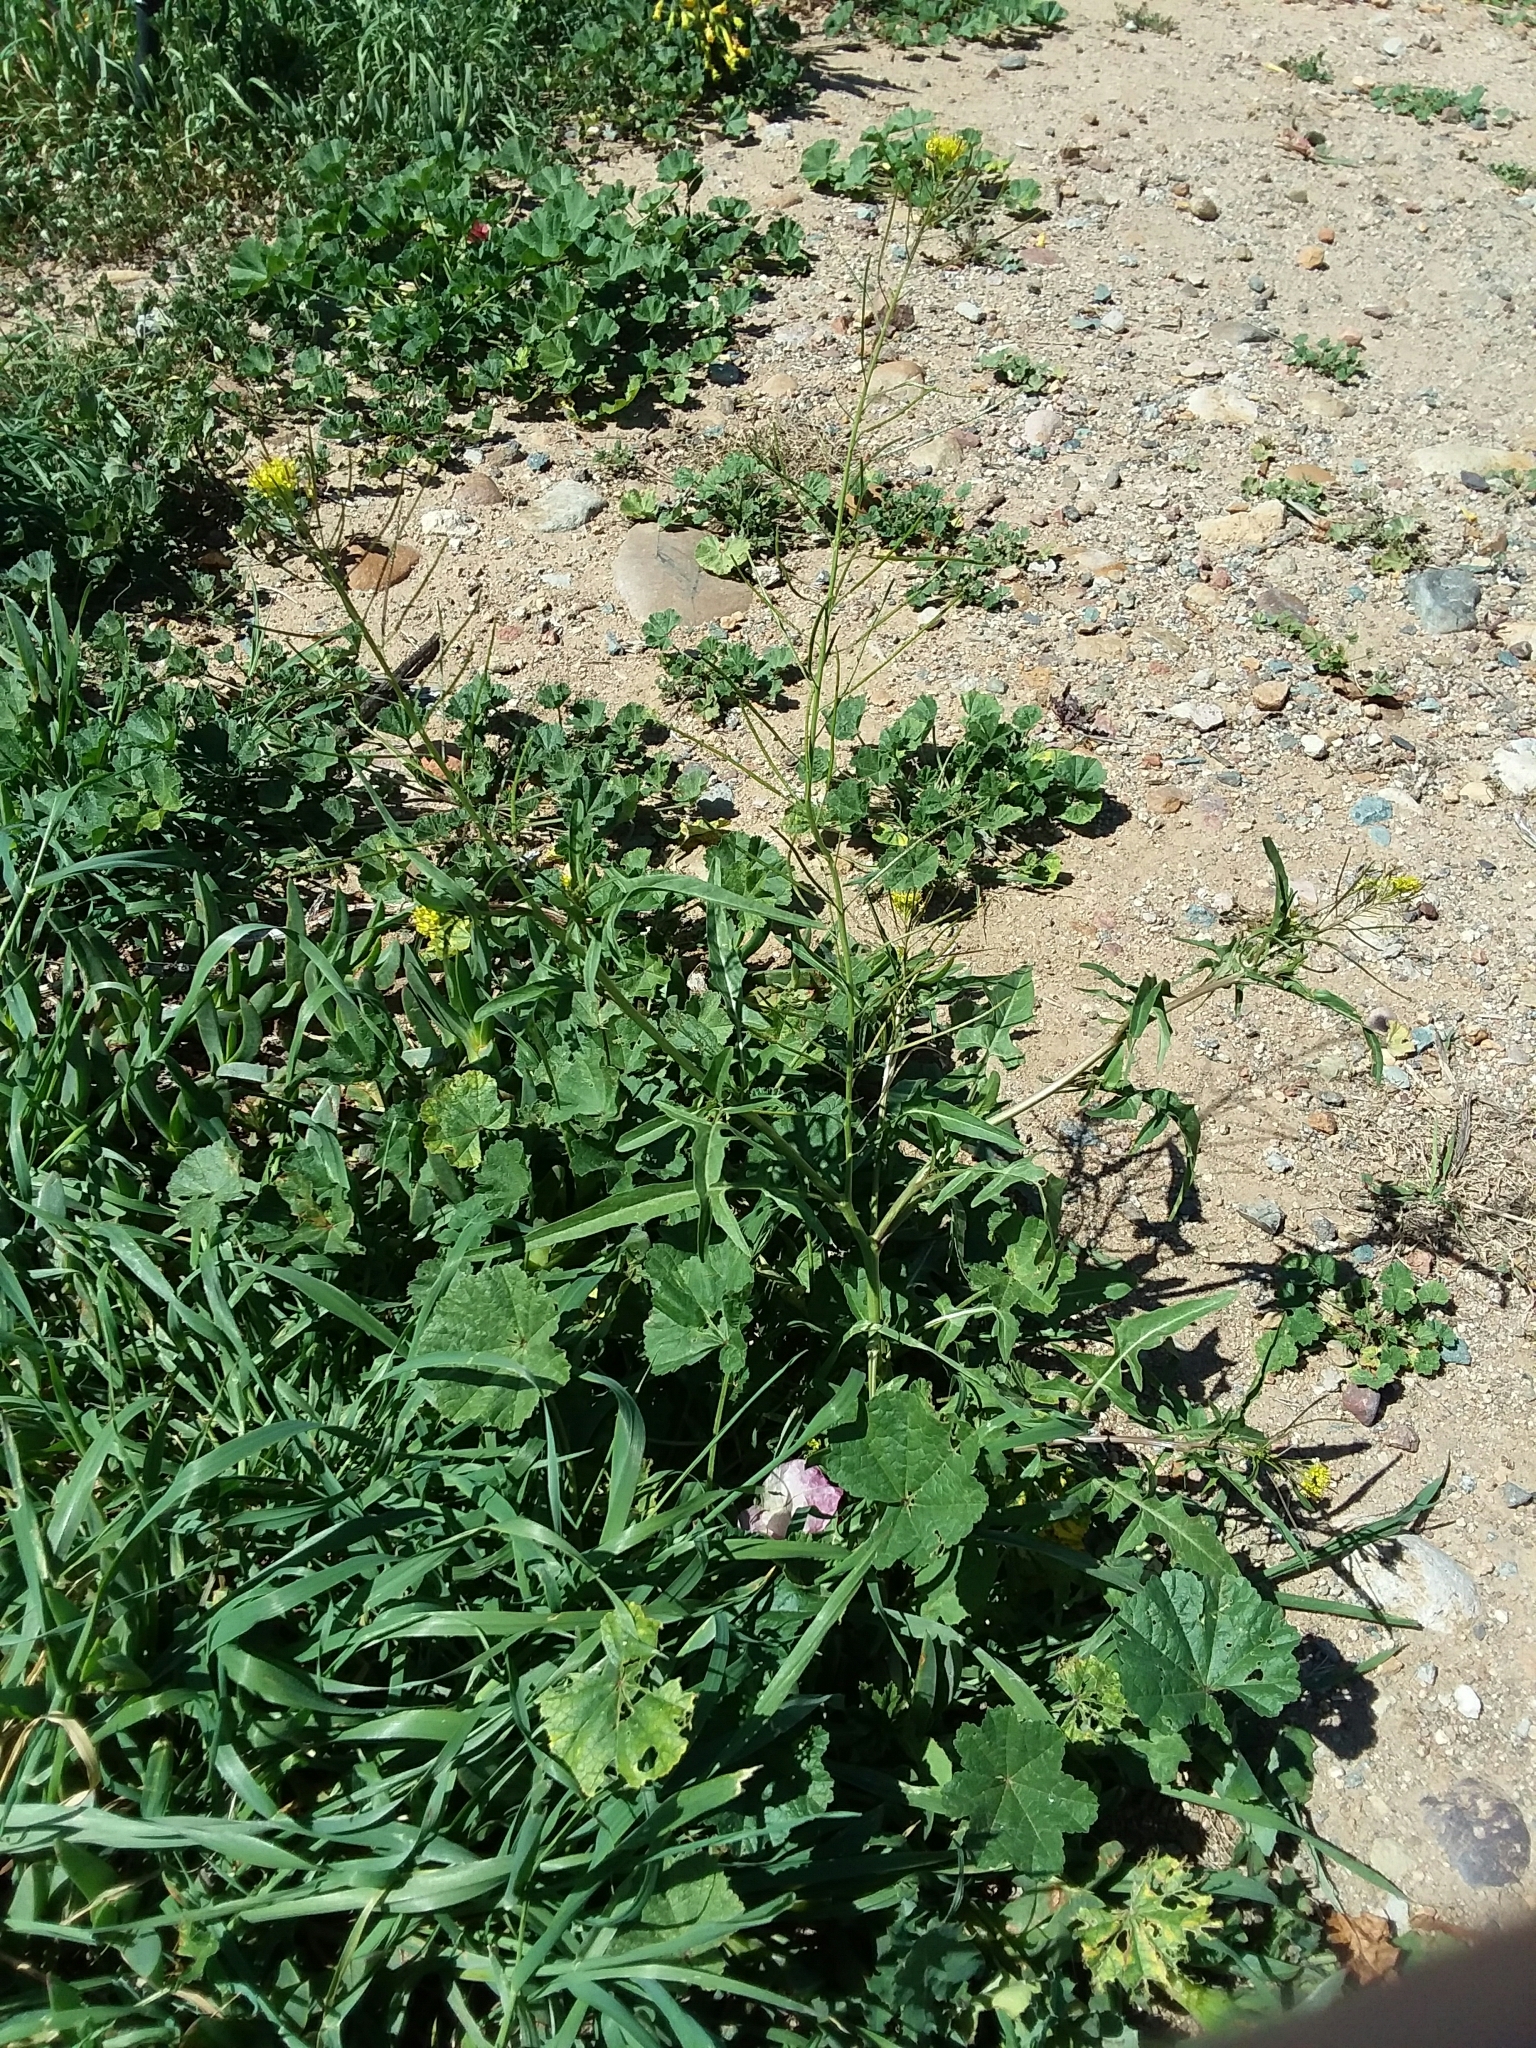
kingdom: Plantae
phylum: Tracheophyta
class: Magnoliopsida
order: Brassicales
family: Brassicaceae
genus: Sisymbrium
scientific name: Sisymbrium irio
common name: London rocket
